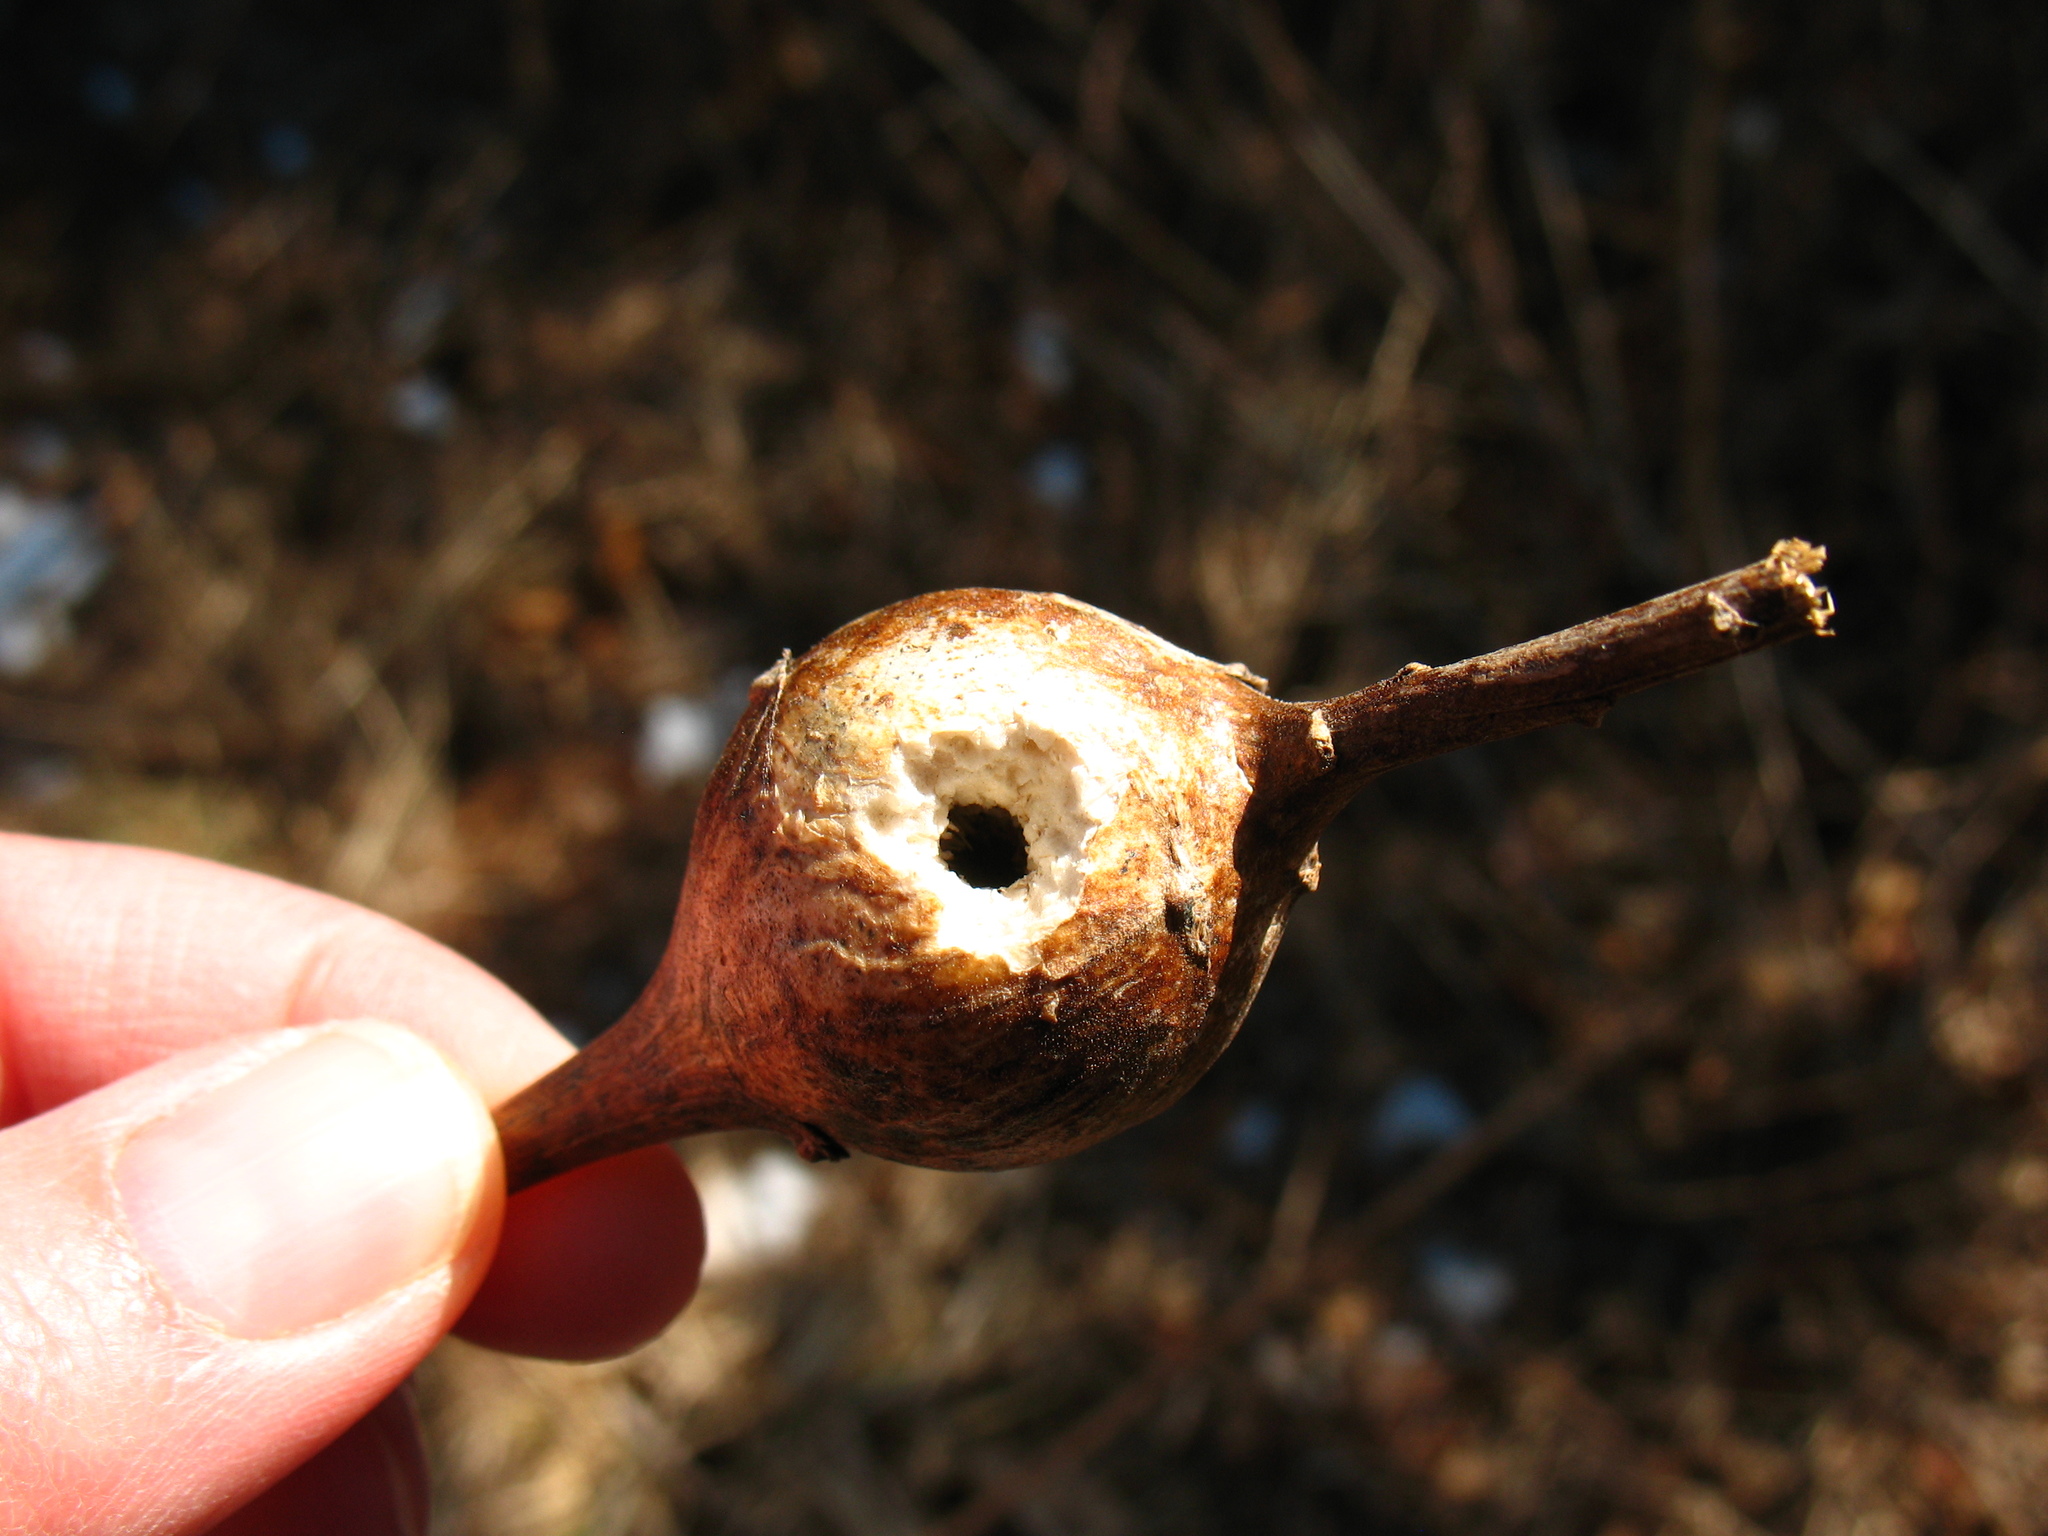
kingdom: Animalia
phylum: Arthropoda
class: Insecta
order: Diptera
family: Tephritidae
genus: Eurosta
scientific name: Eurosta solidaginis
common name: Goldenrod gall fly
